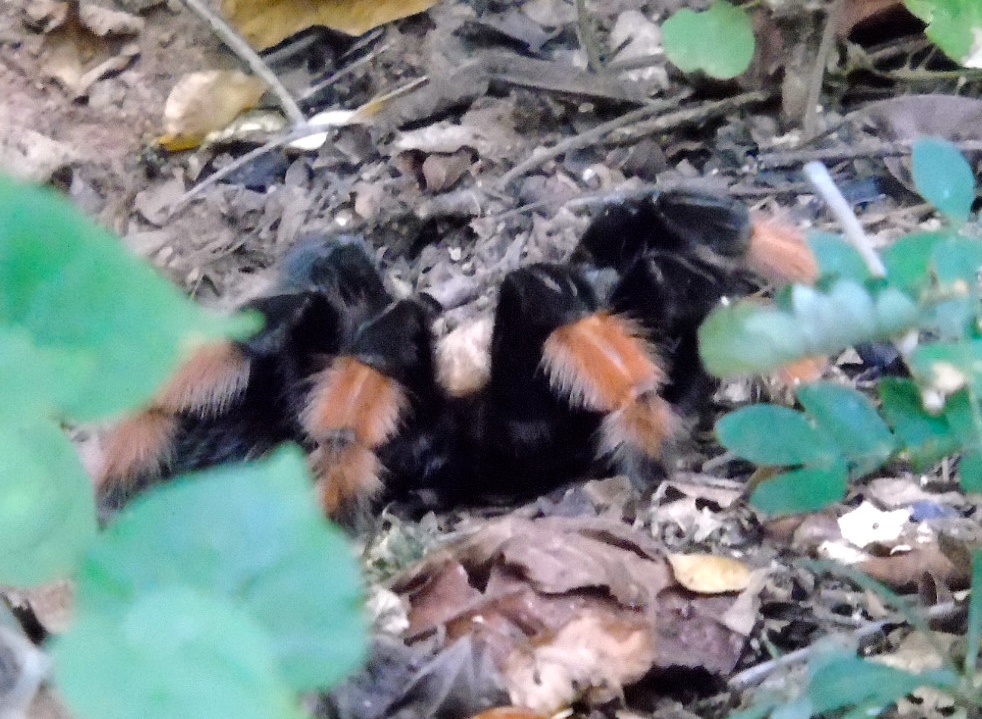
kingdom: Animalia
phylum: Arthropoda
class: Arachnida
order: Araneae
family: Theraphosidae
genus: Brachypelma
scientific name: Brachypelma emilia
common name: Mexican redleg
